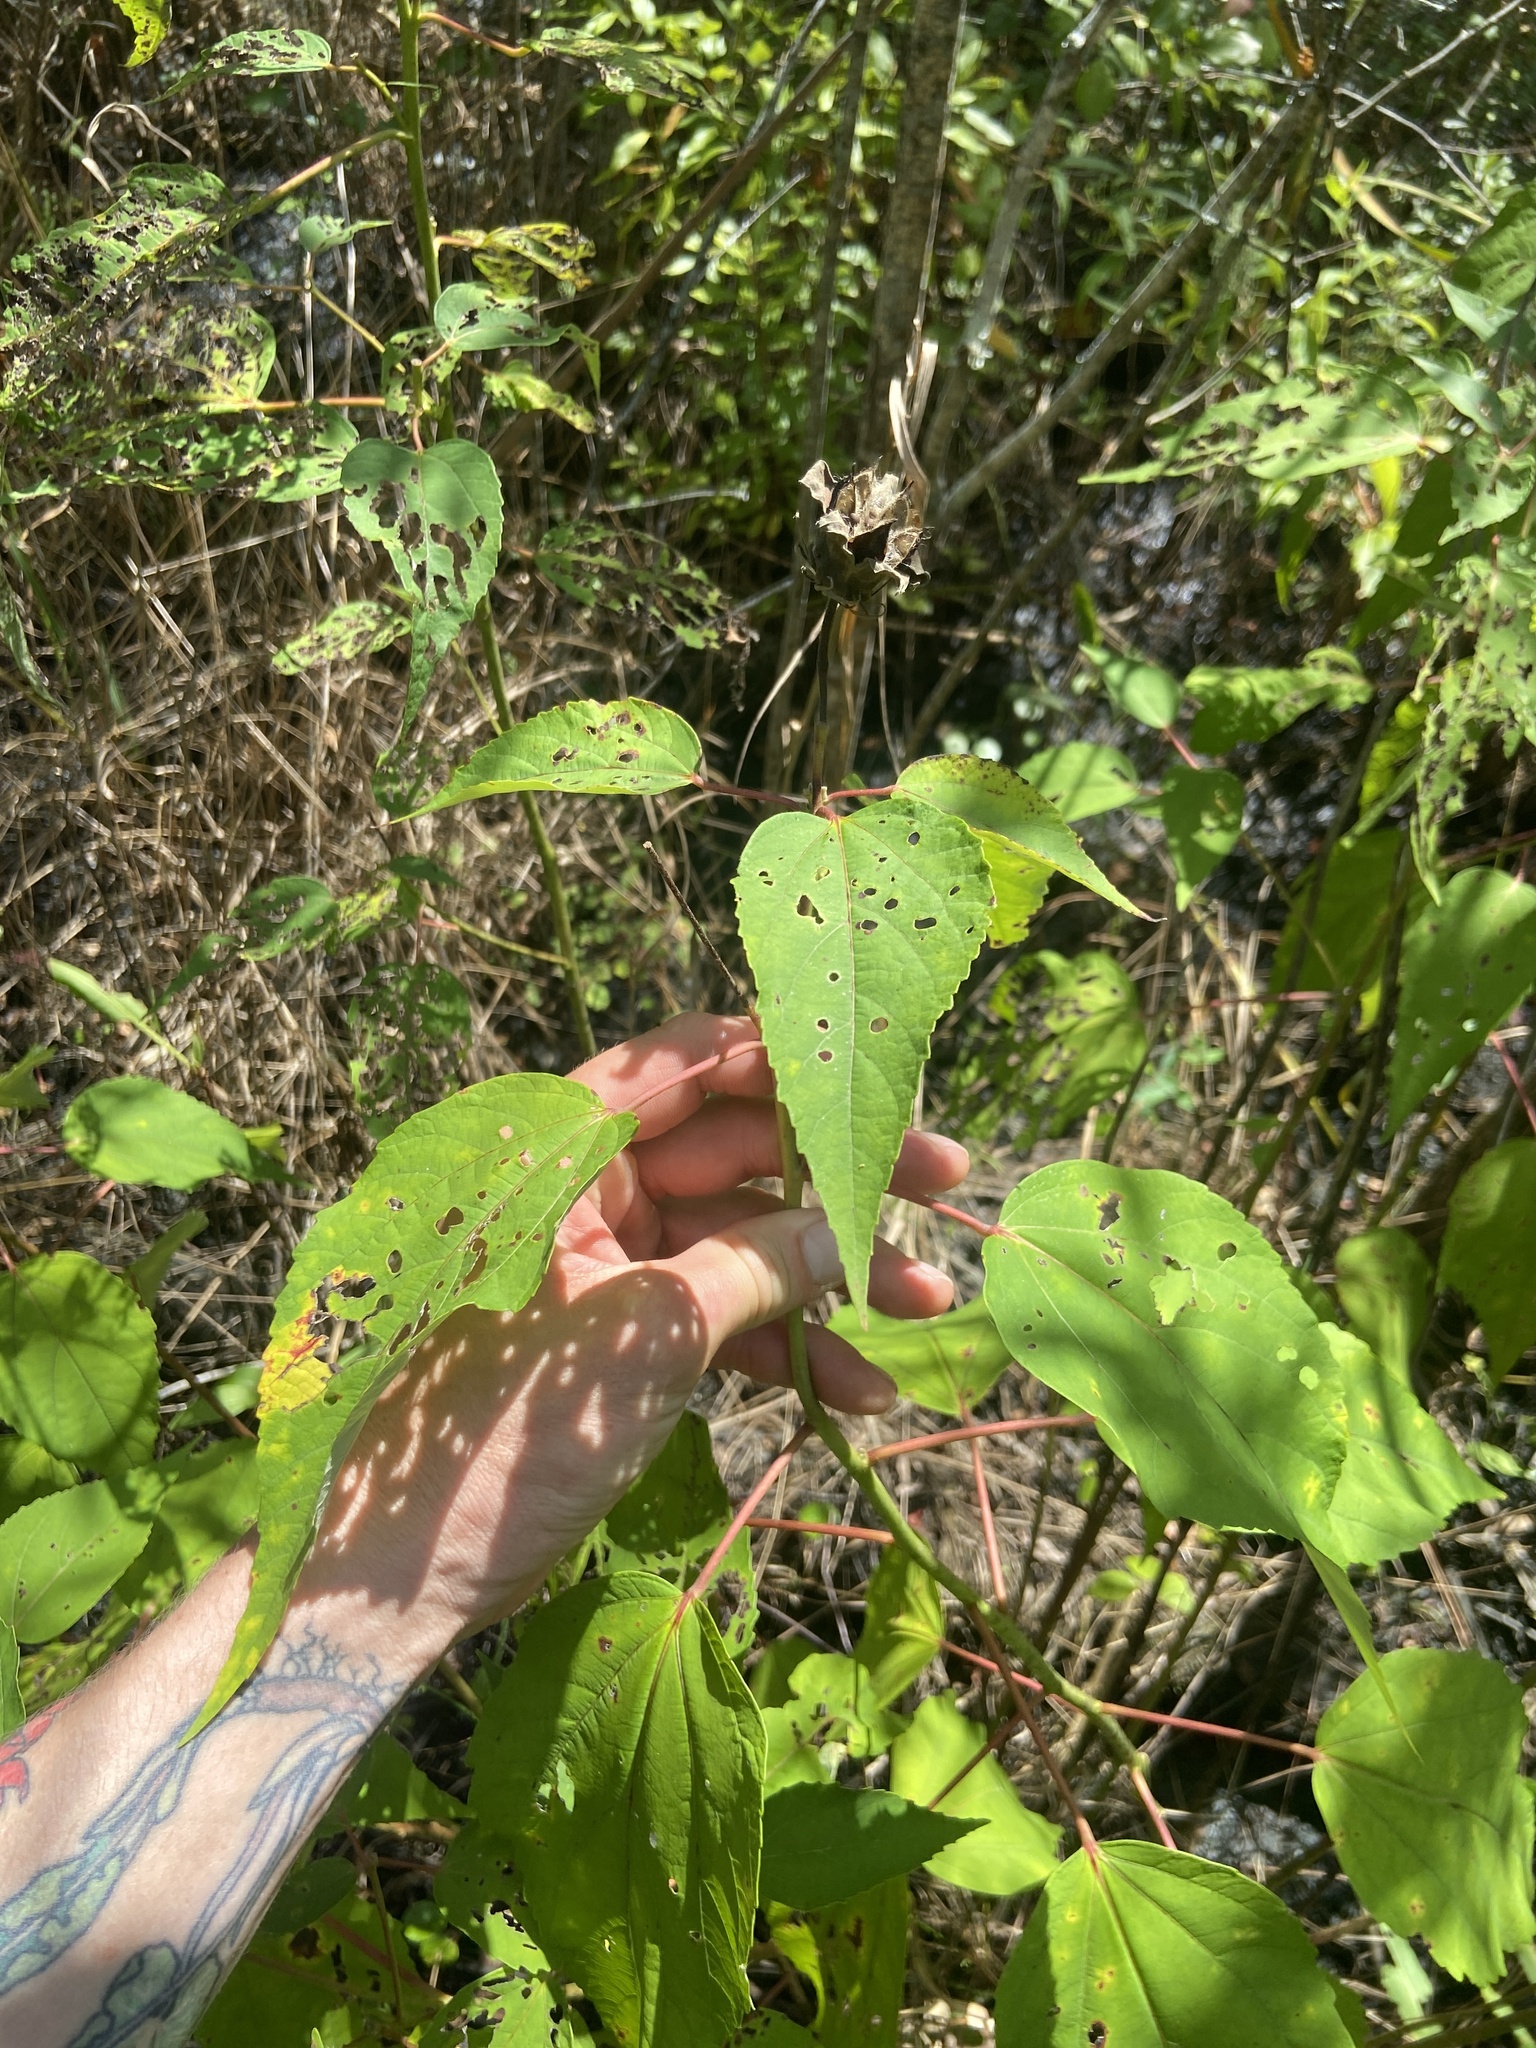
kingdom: Plantae
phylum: Tracheophyta
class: Magnoliopsida
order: Malvales
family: Malvaceae
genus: Hibiscus
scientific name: Hibiscus moscheutos
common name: Common rose-mallow
